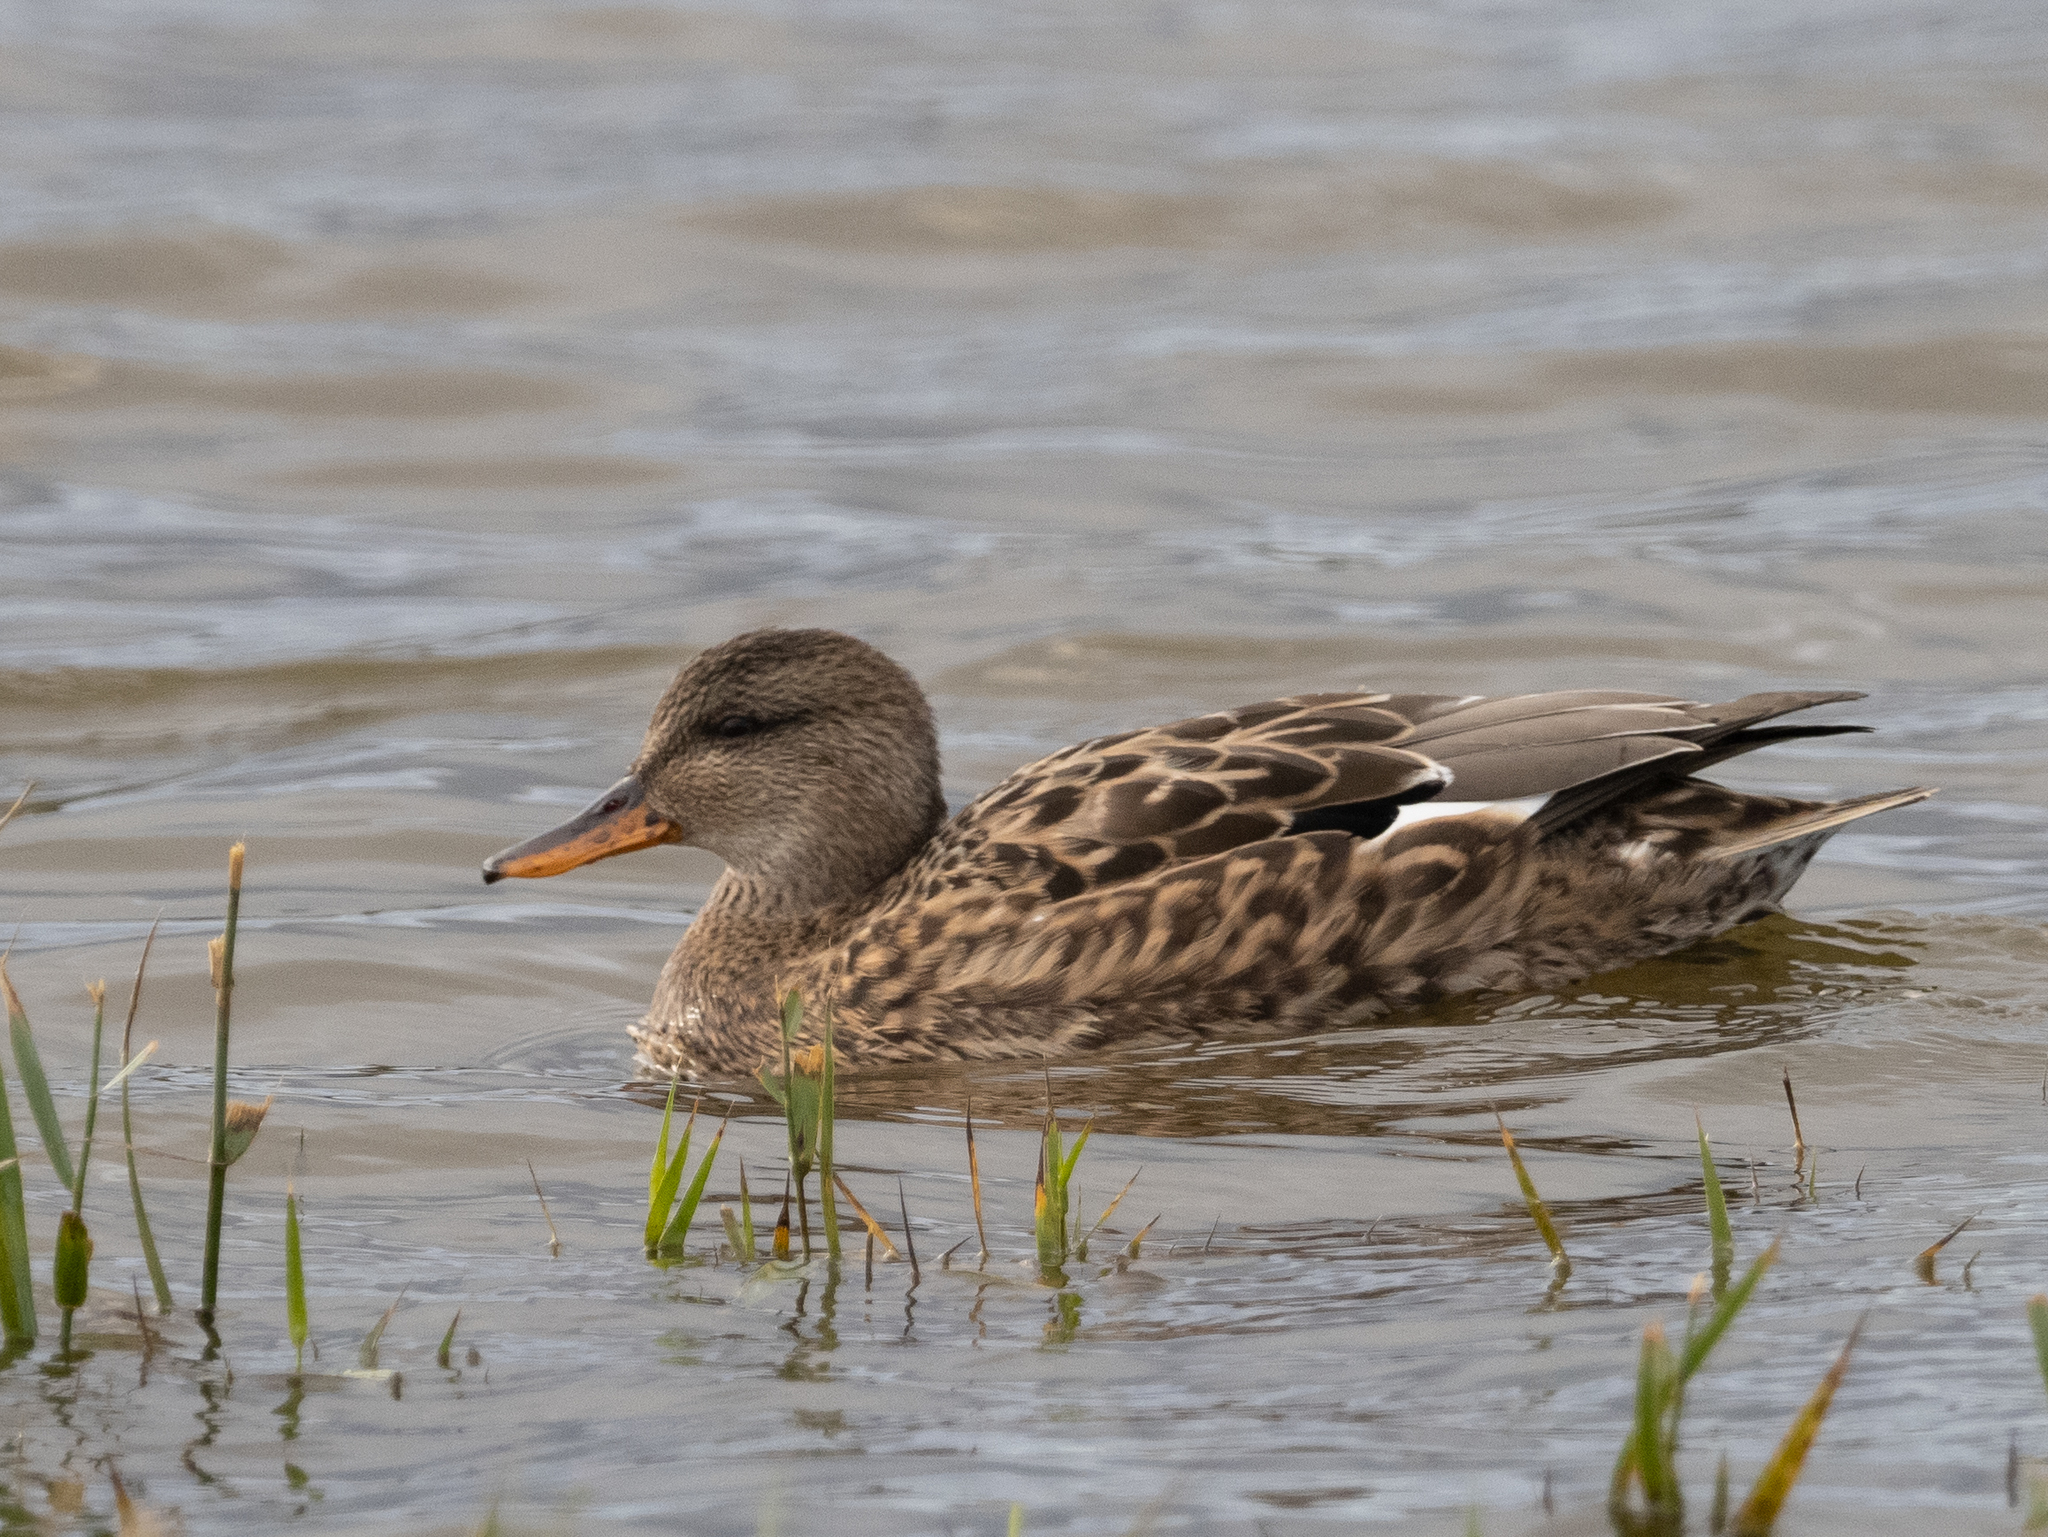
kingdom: Animalia
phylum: Chordata
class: Aves
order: Anseriformes
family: Anatidae
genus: Mareca
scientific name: Mareca strepera
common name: Gadwall
